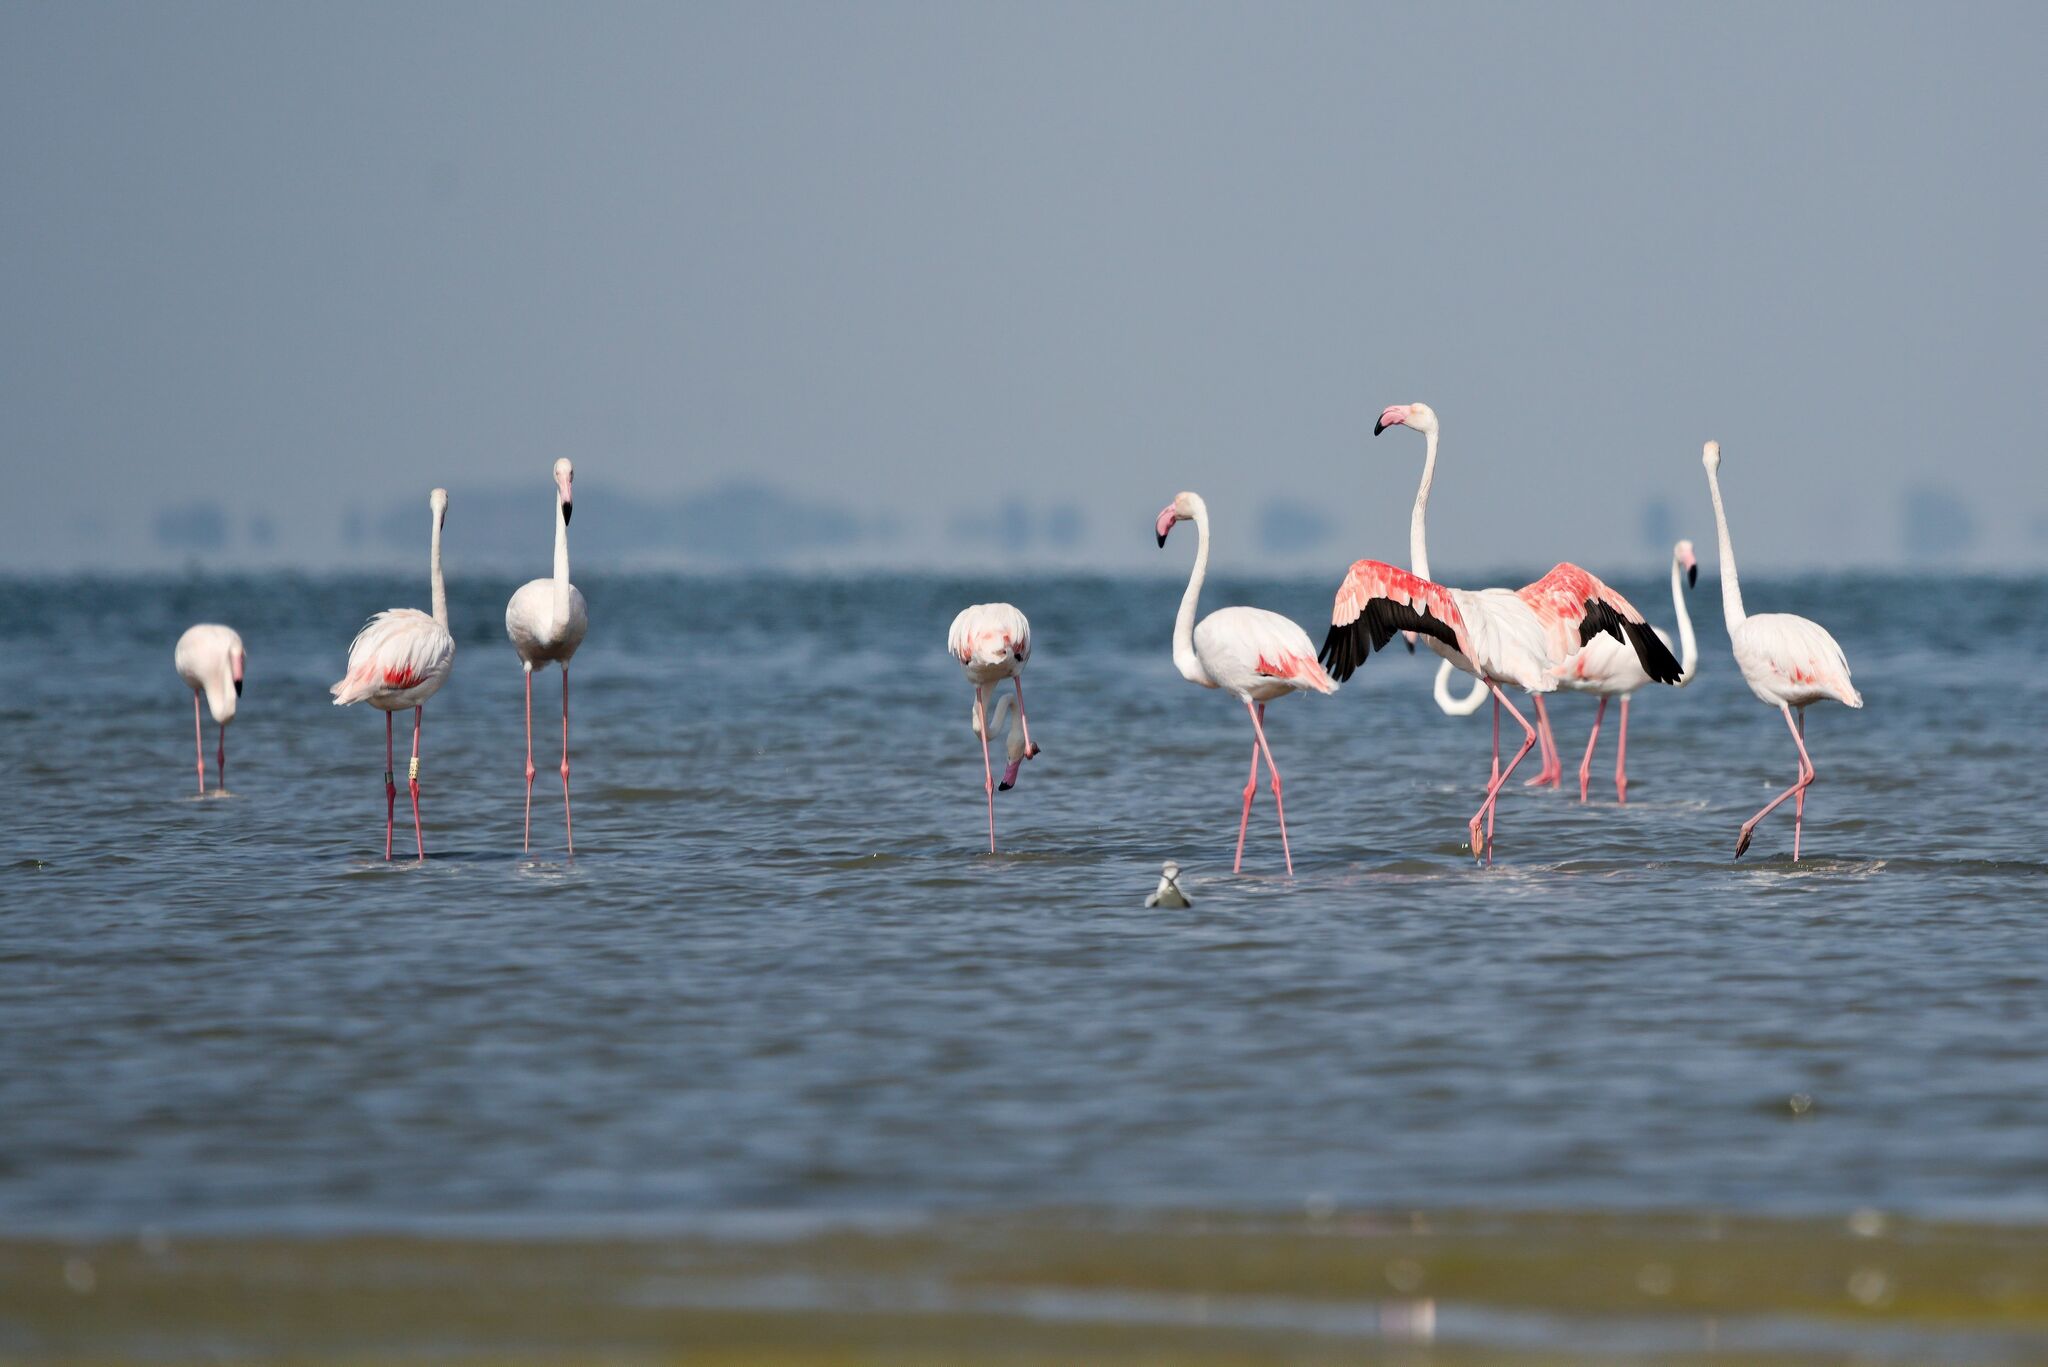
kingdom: Animalia
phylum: Chordata
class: Aves
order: Phoenicopteriformes
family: Phoenicopteridae
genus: Phoenicopterus
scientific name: Phoenicopterus roseus
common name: Greater flamingo
